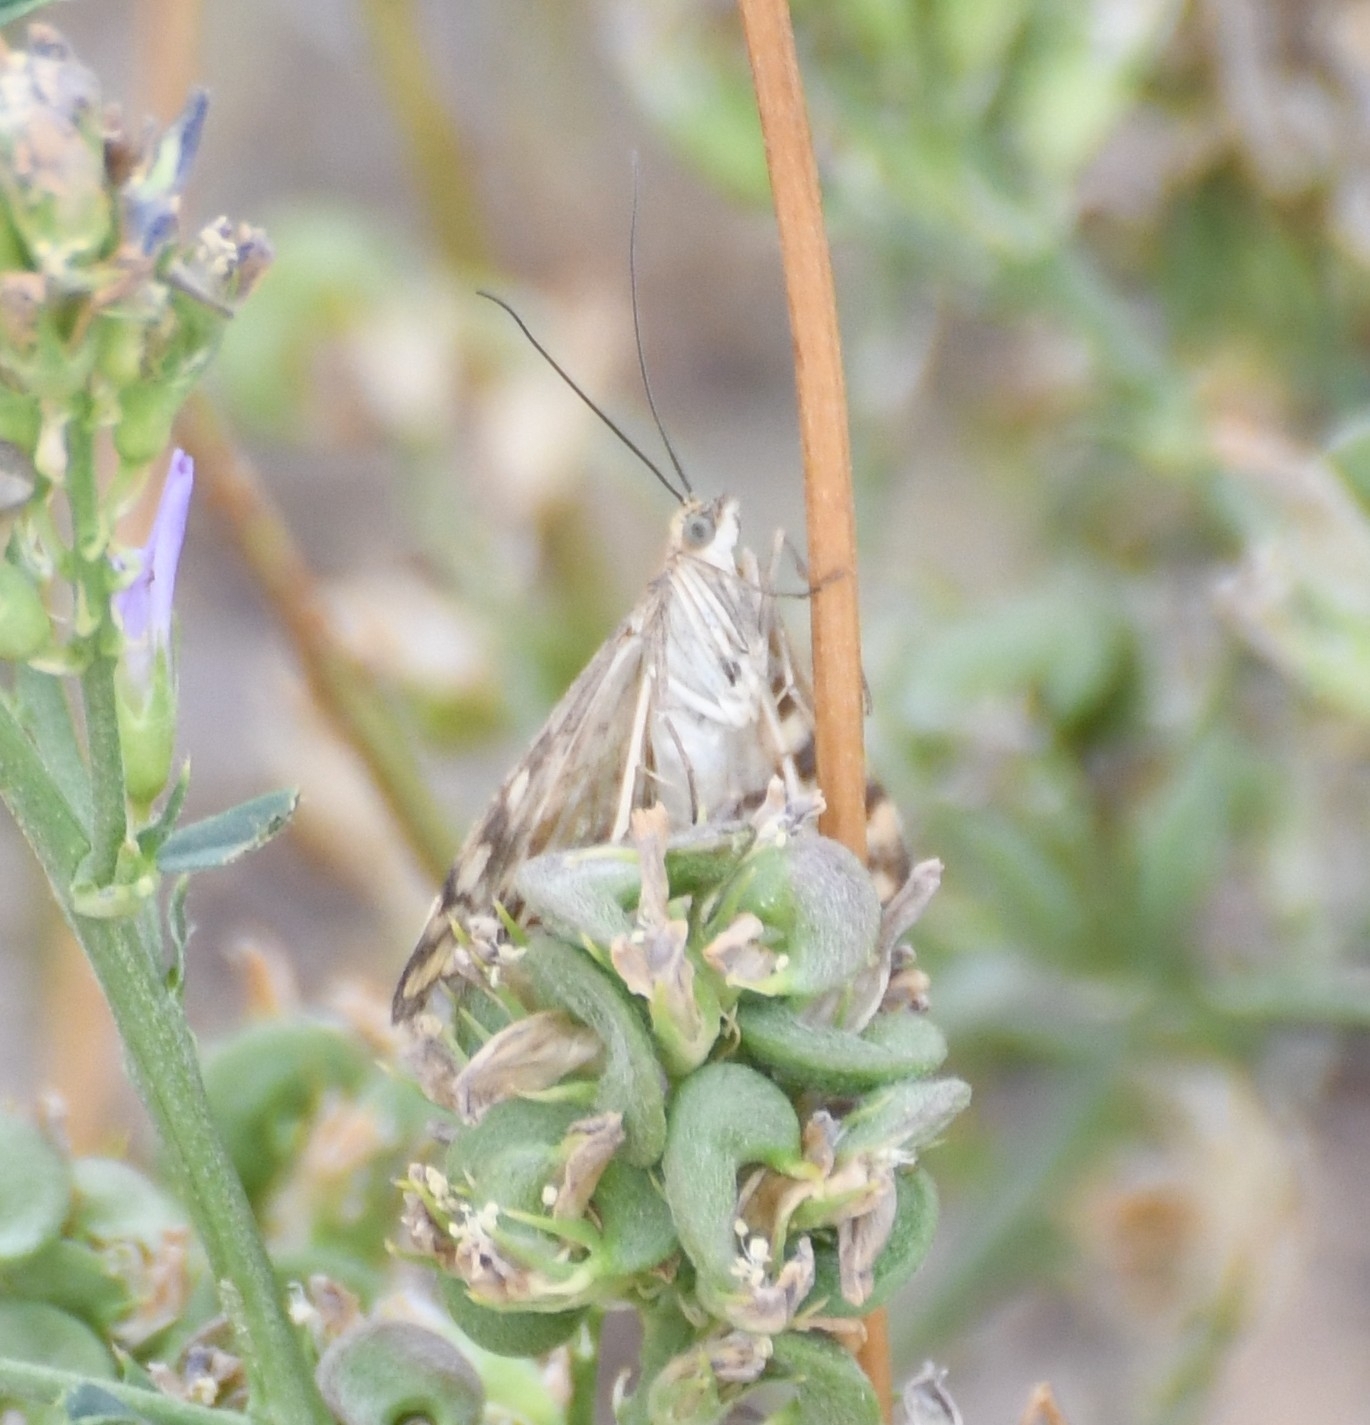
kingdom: Animalia
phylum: Arthropoda
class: Insecta
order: Lepidoptera
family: Crambidae
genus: Loxostege
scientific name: Loxostege
